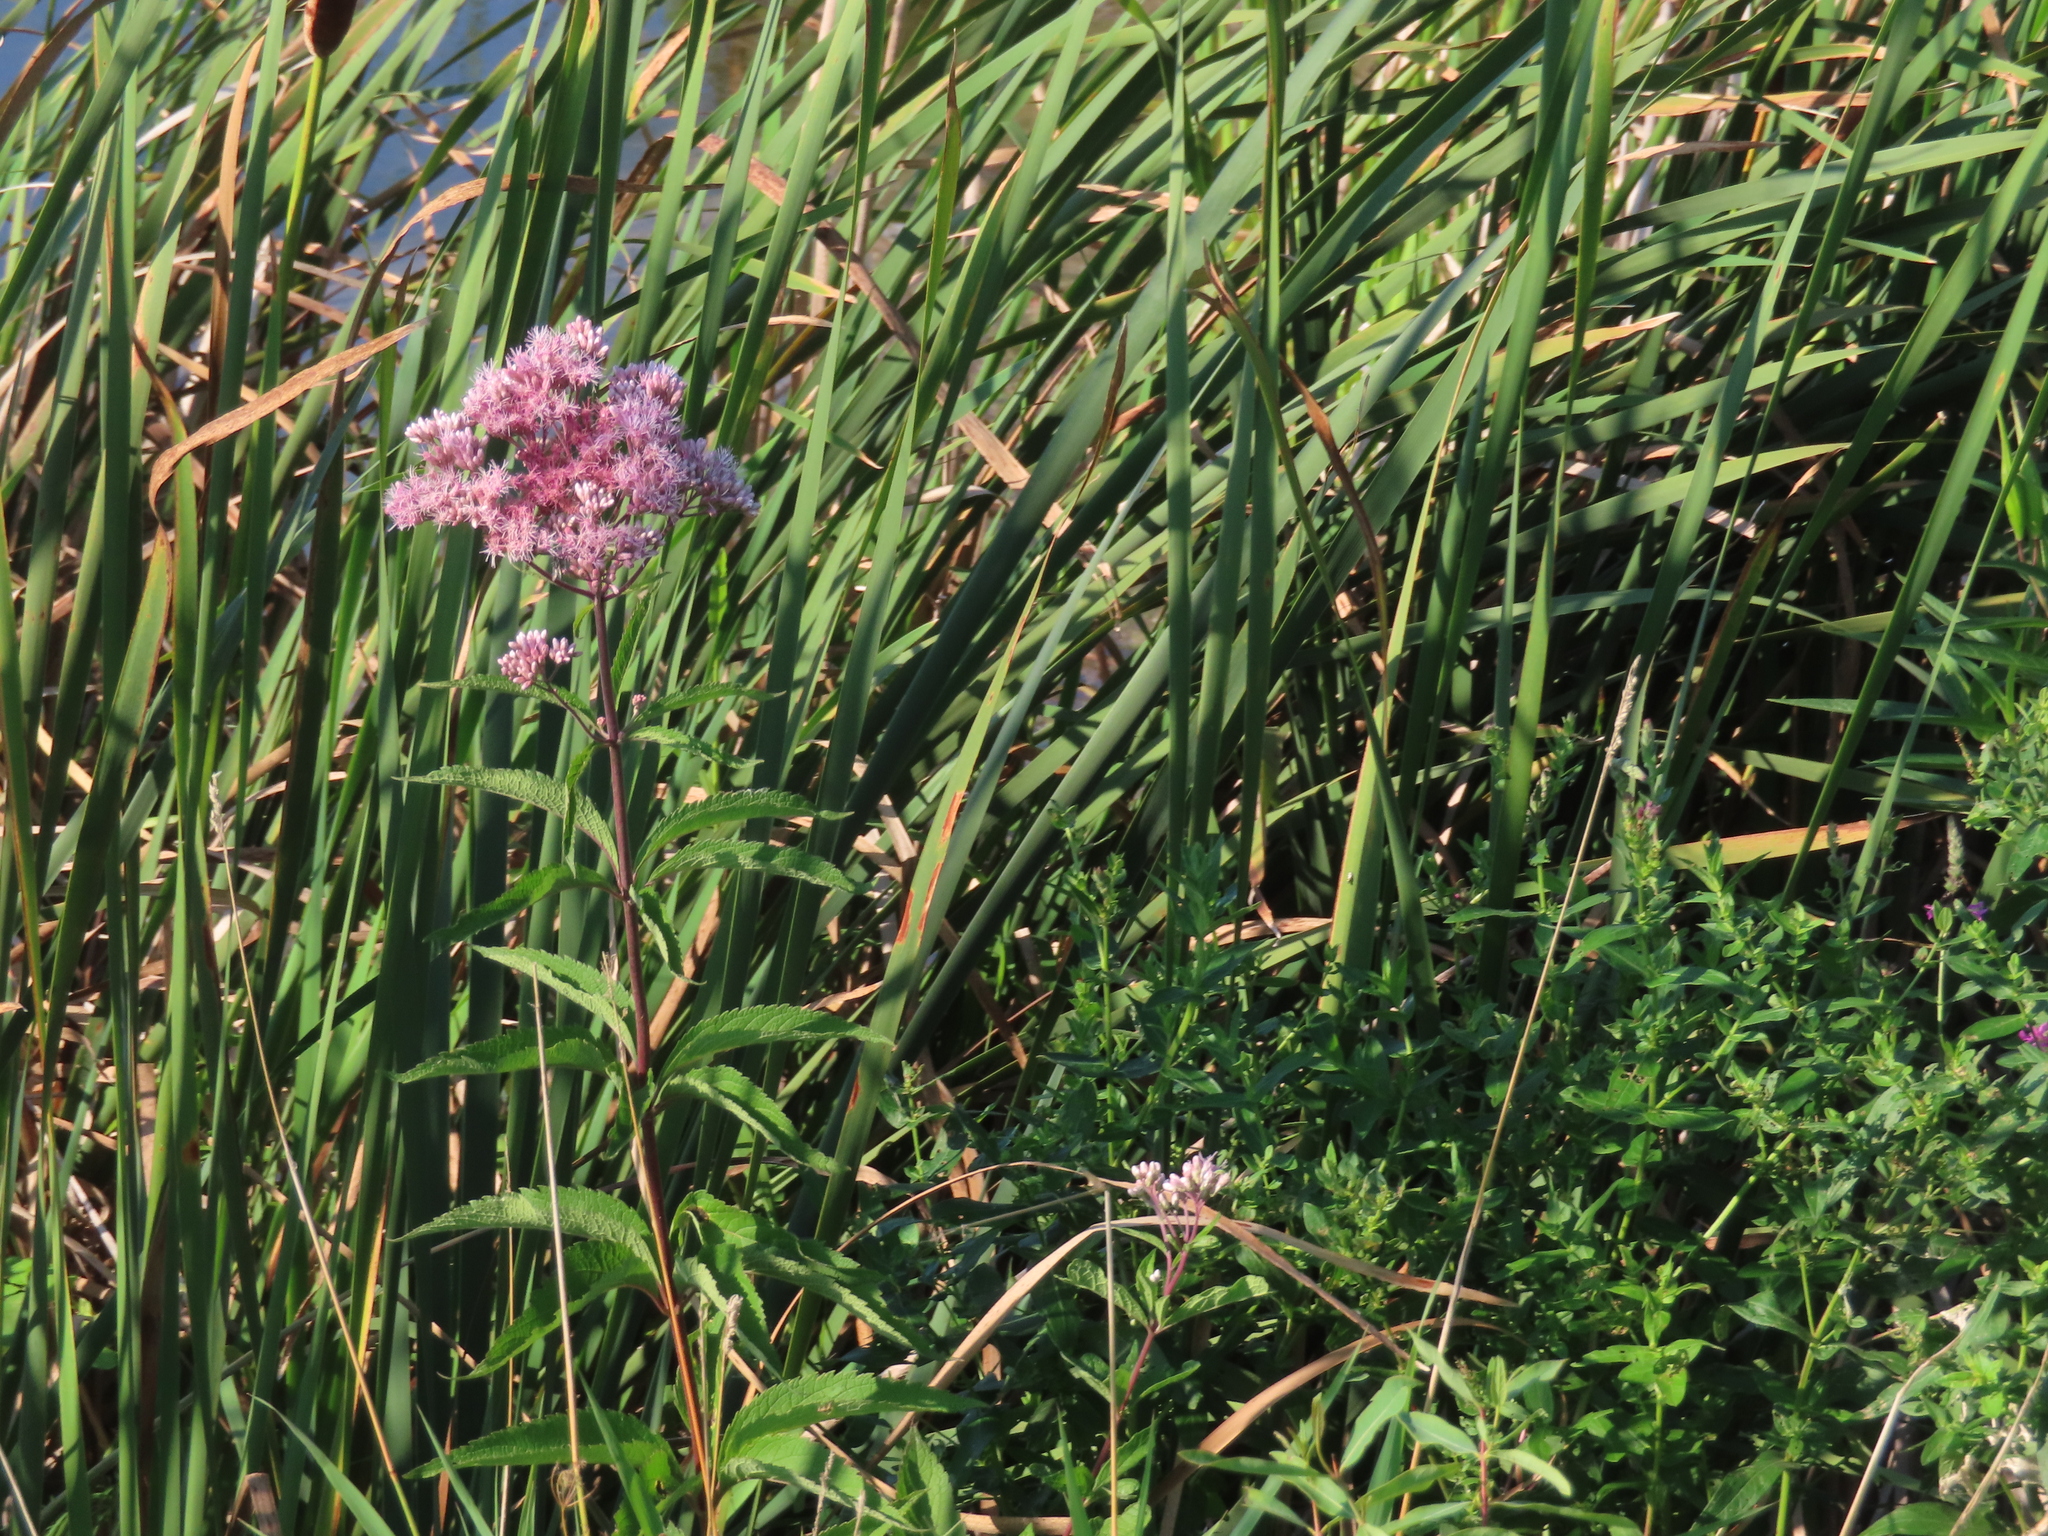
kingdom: Plantae
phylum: Tracheophyta
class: Magnoliopsida
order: Asterales
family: Asteraceae
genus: Eutrochium
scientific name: Eutrochium maculatum
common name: Spotted joe pye weed
